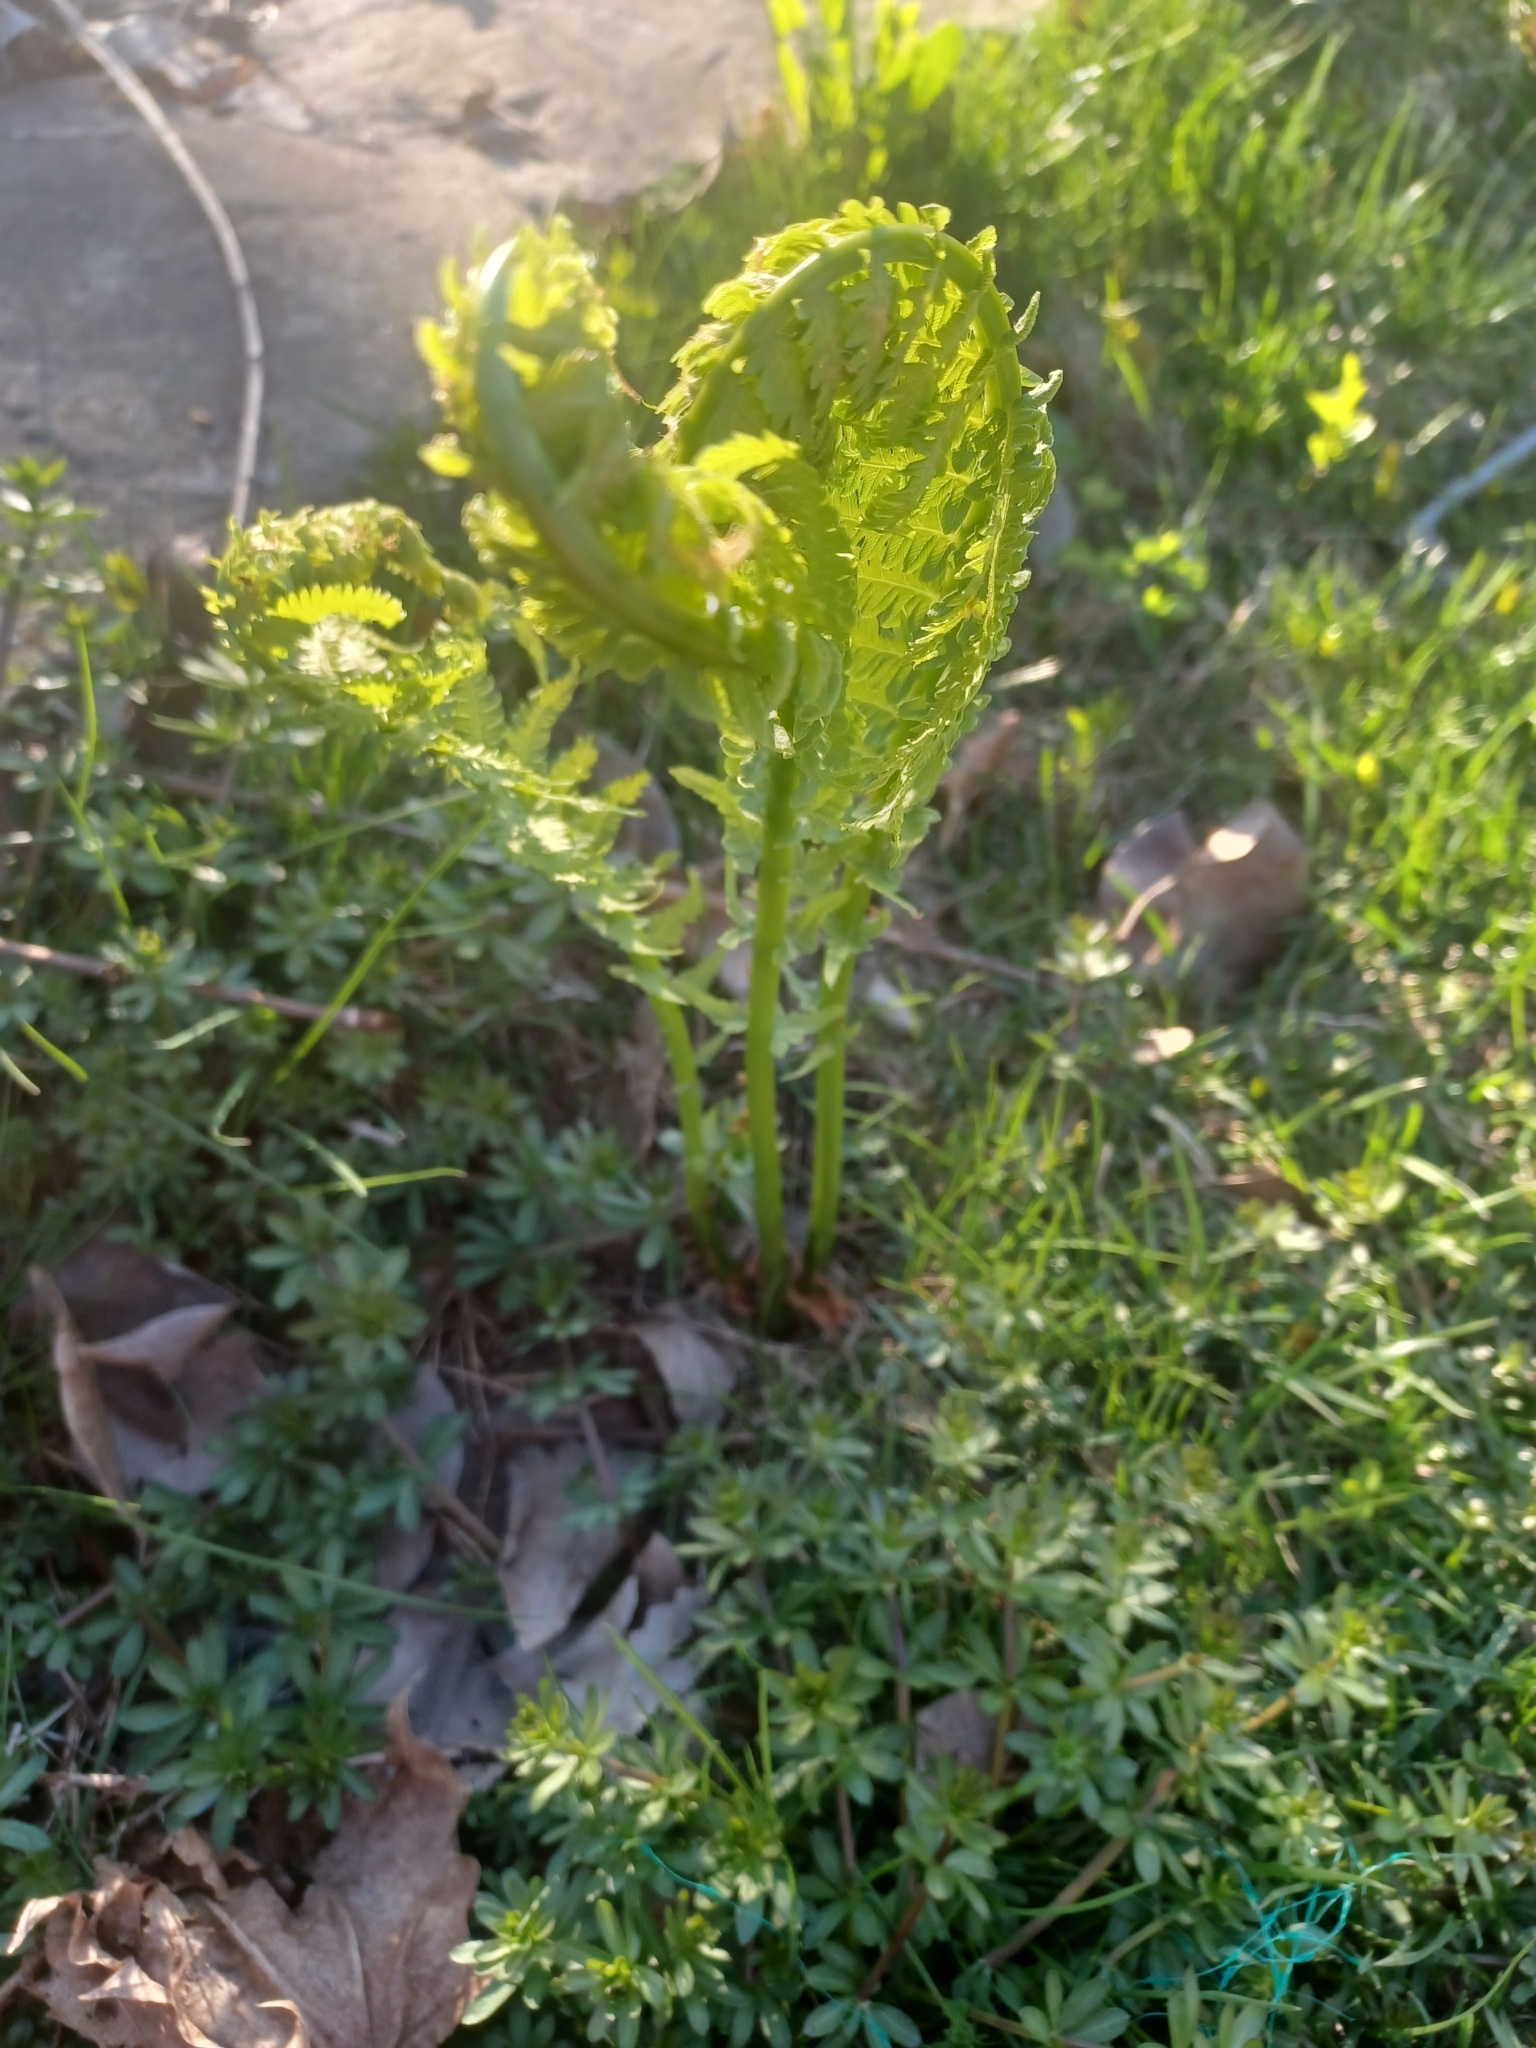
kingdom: Plantae
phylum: Tracheophyta
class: Polypodiopsida
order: Polypodiales
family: Onocleaceae
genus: Matteuccia
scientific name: Matteuccia struthiopteris
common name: Ostrich fern
